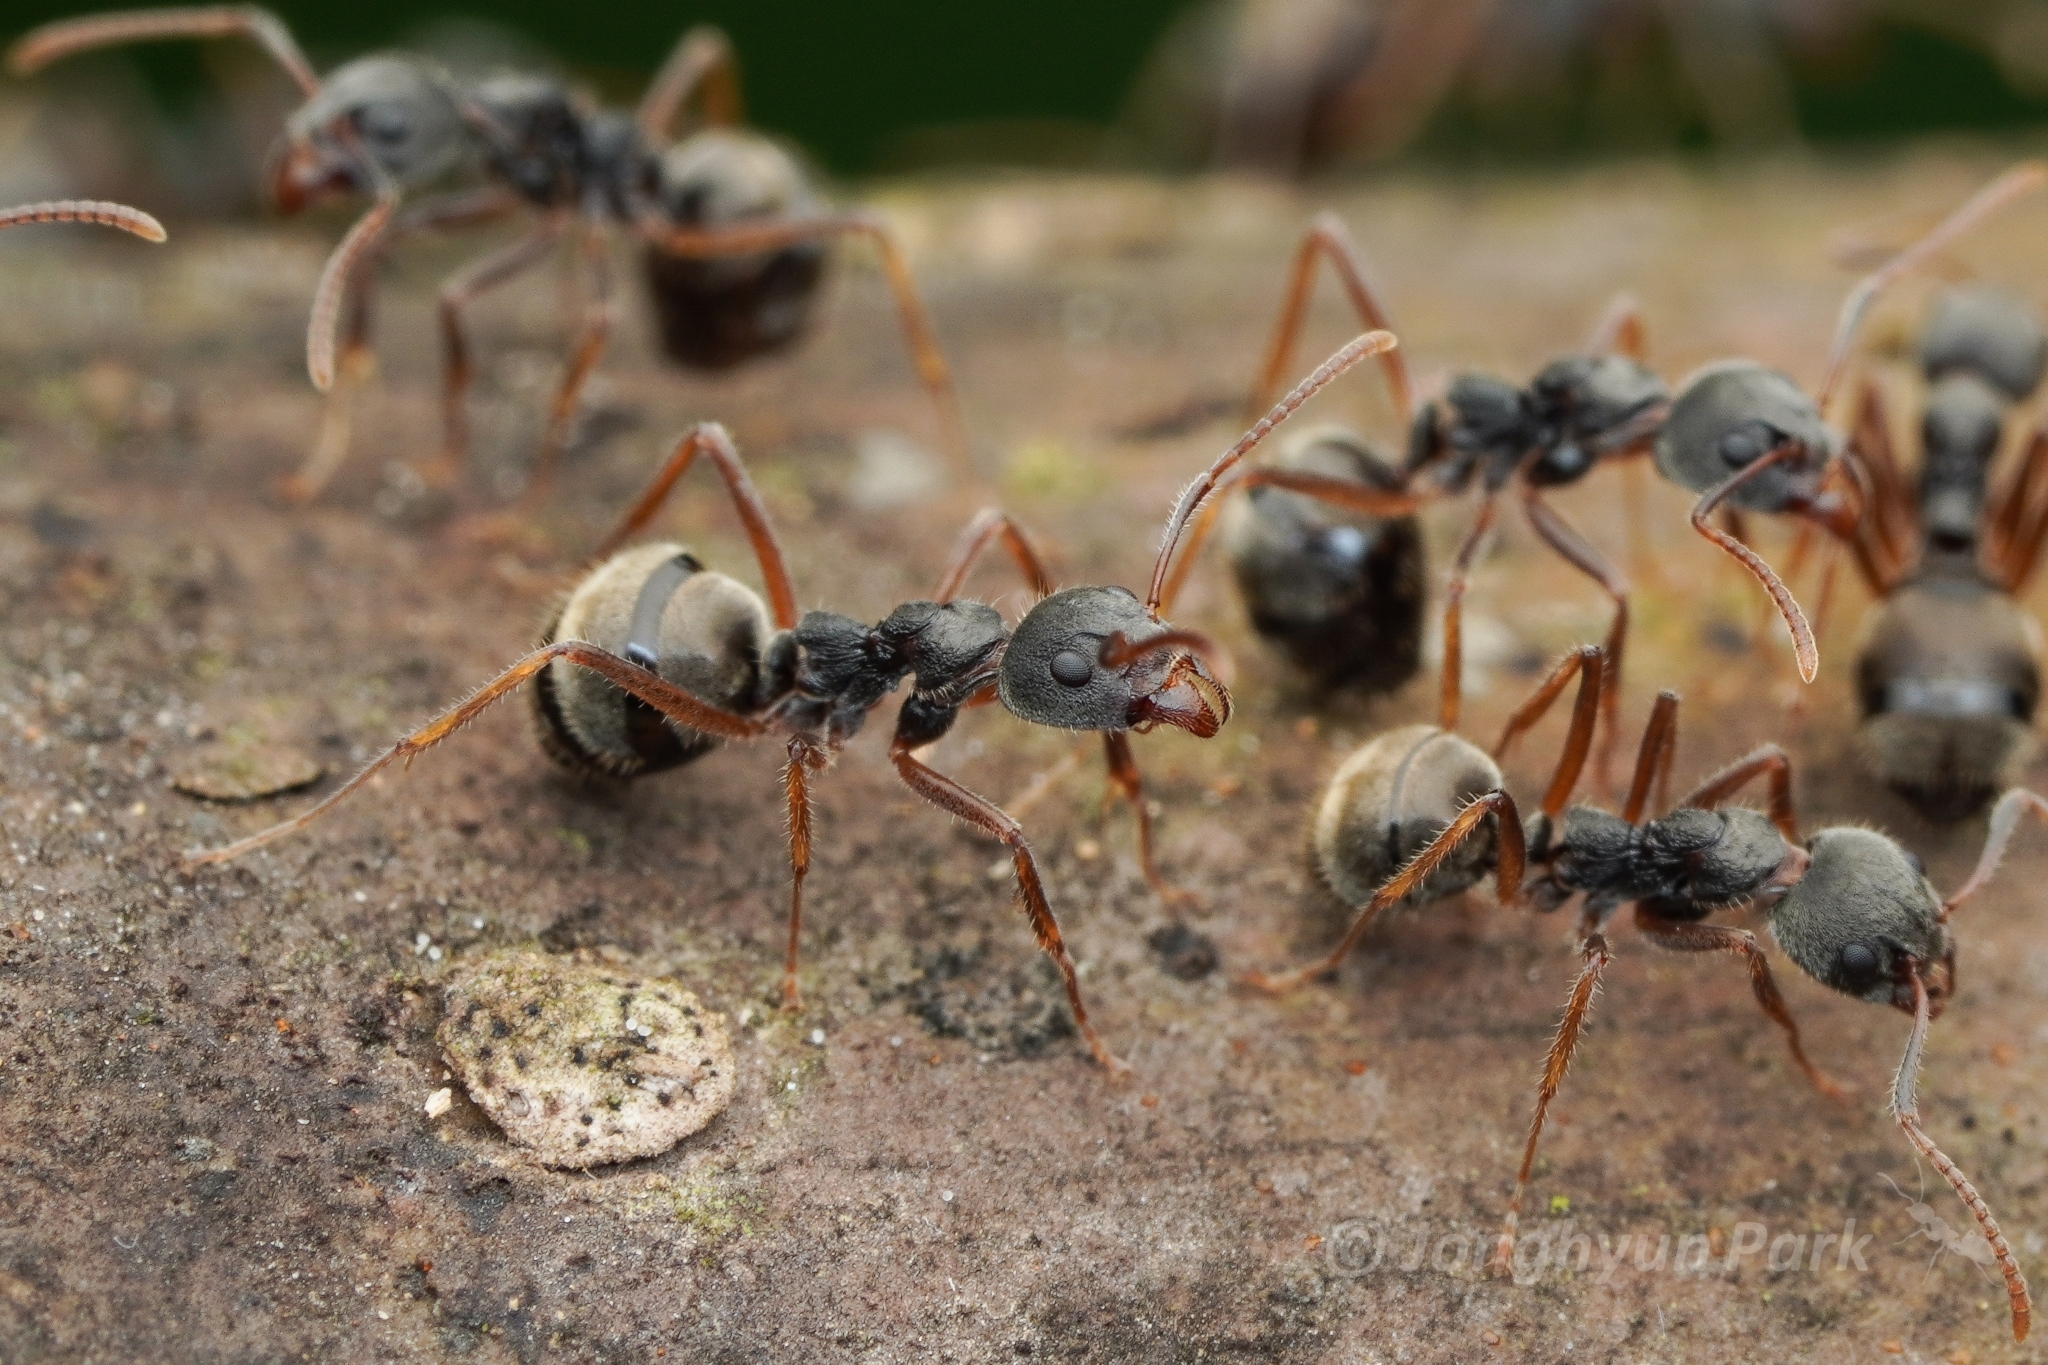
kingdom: Animalia
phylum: Arthropoda
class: Insecta
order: Hymenoptera
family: Formicidae
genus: Dolichoderus
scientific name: Dolichoderus affinis
